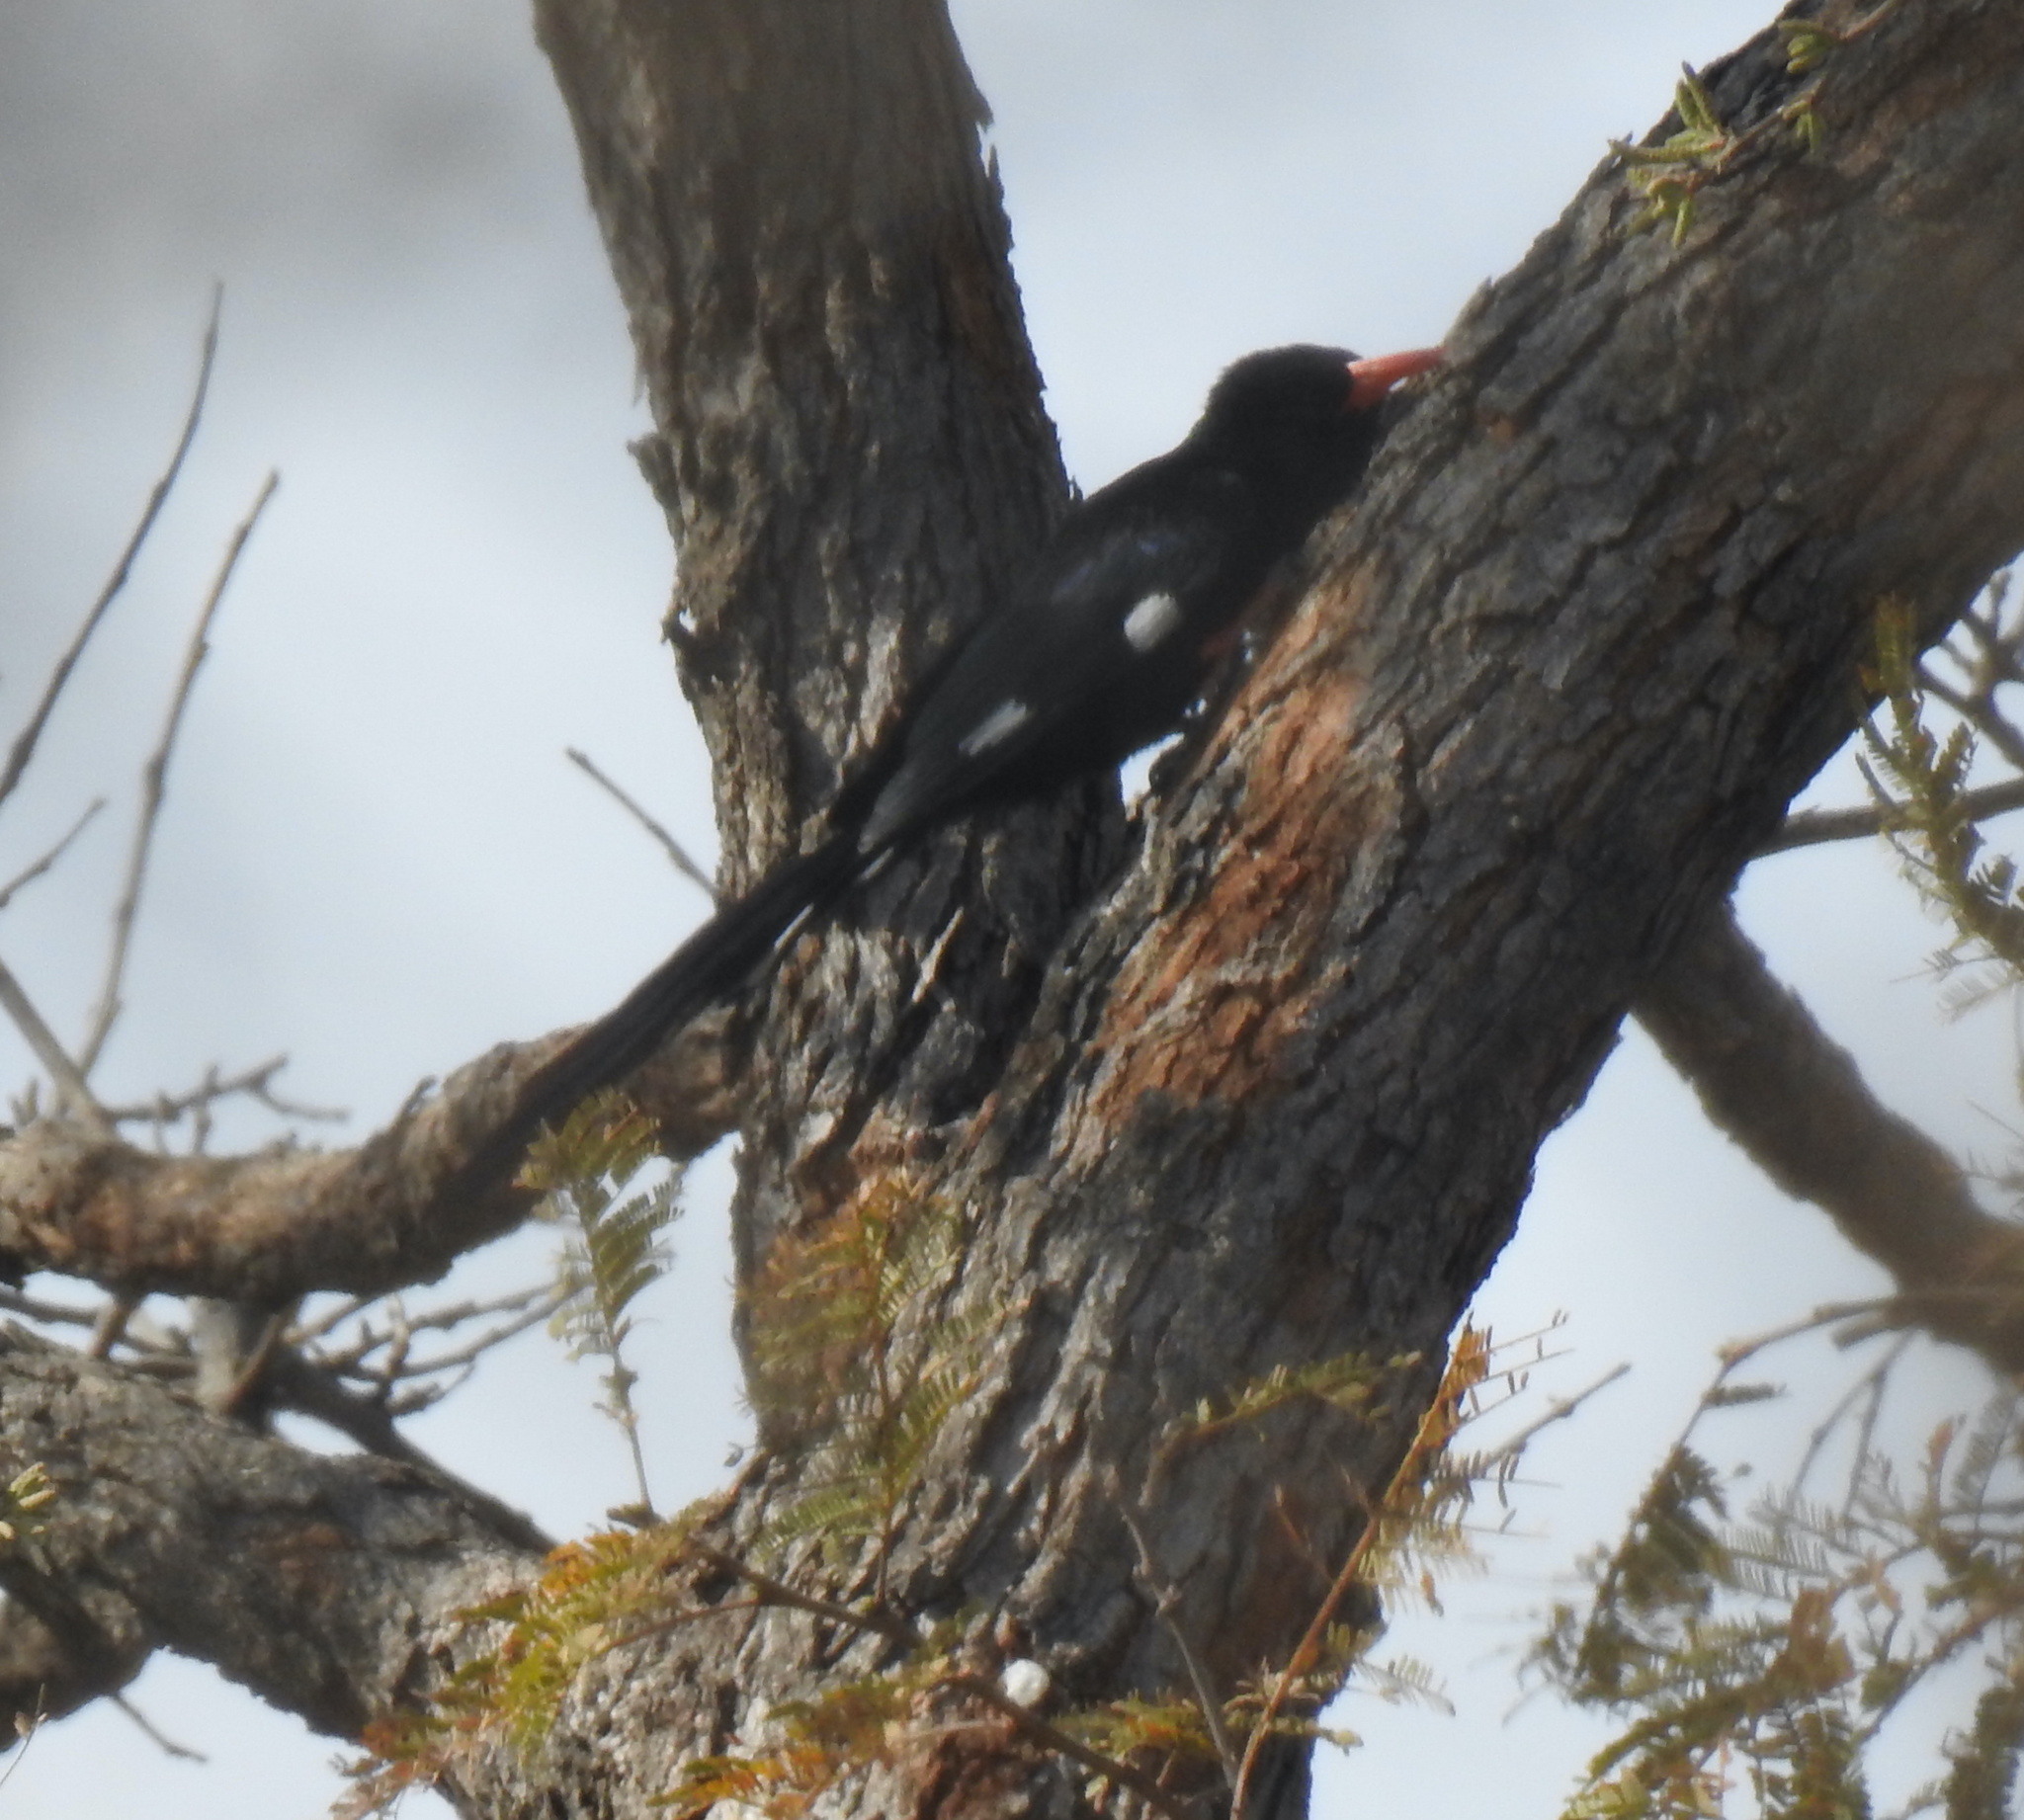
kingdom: Animalia
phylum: Chordata
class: Aves
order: Bucerotiformes
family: Phoeniculidae
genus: Phoeniculus
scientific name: Phoeniculus purpureus
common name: Green woodhoopoe
